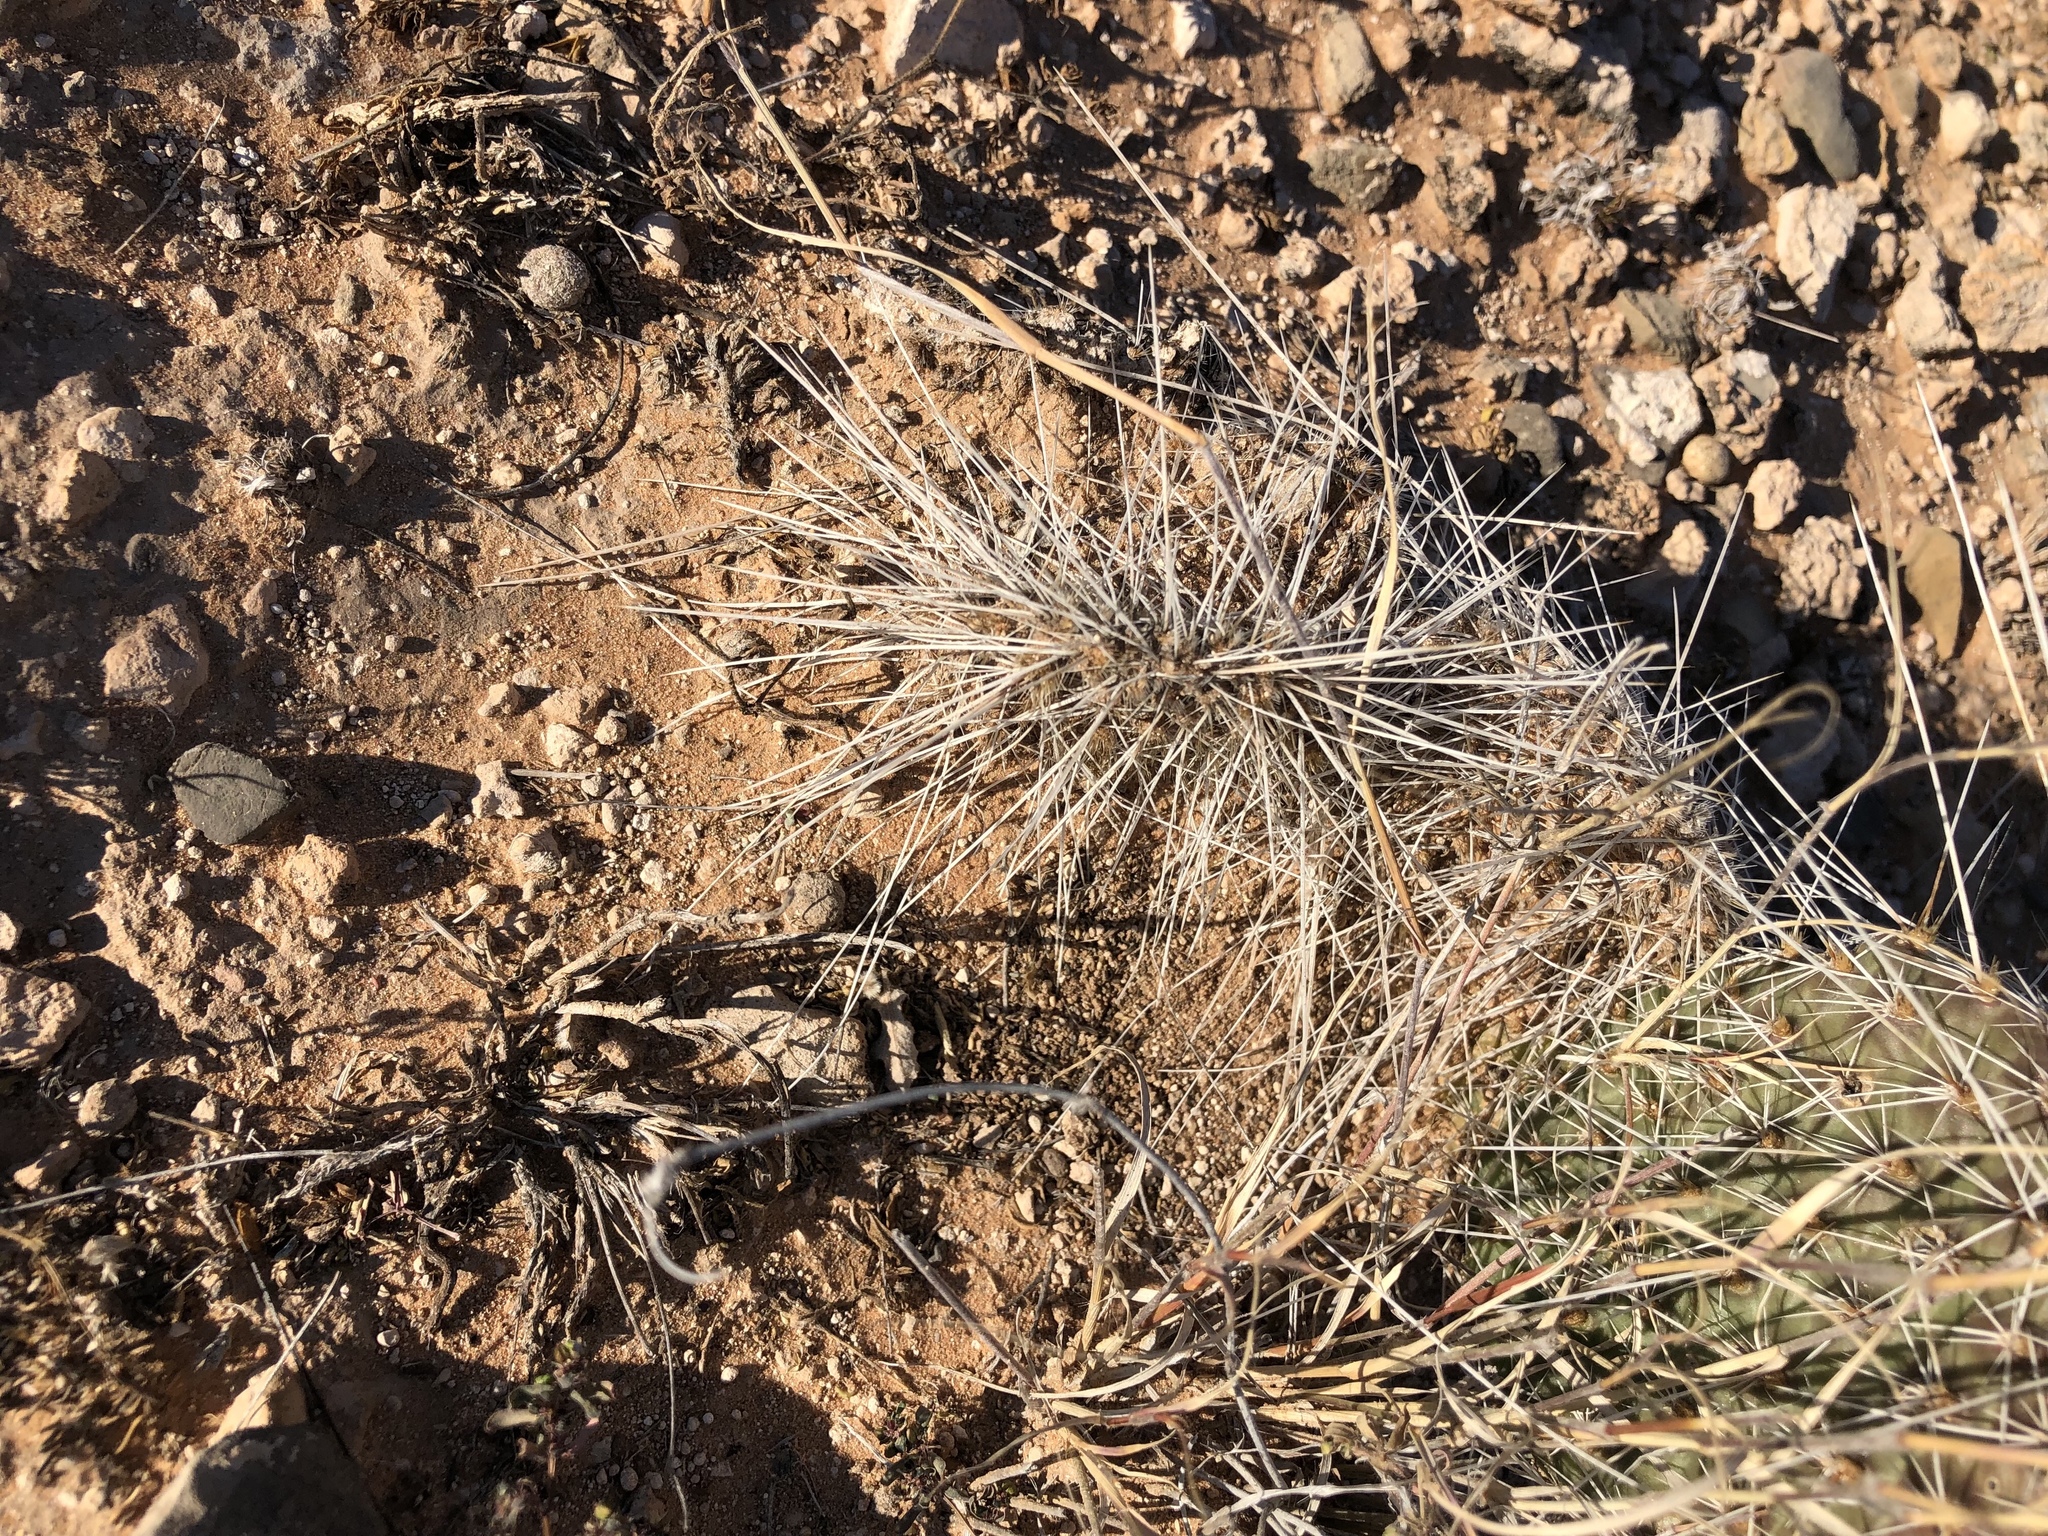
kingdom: Plantae
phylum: Tracheophyta
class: Magnoliopsida
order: Caryophyllales
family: Cactaceae
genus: Opuntia
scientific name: Opuntia polyacantha
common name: Plains prickly-pear
